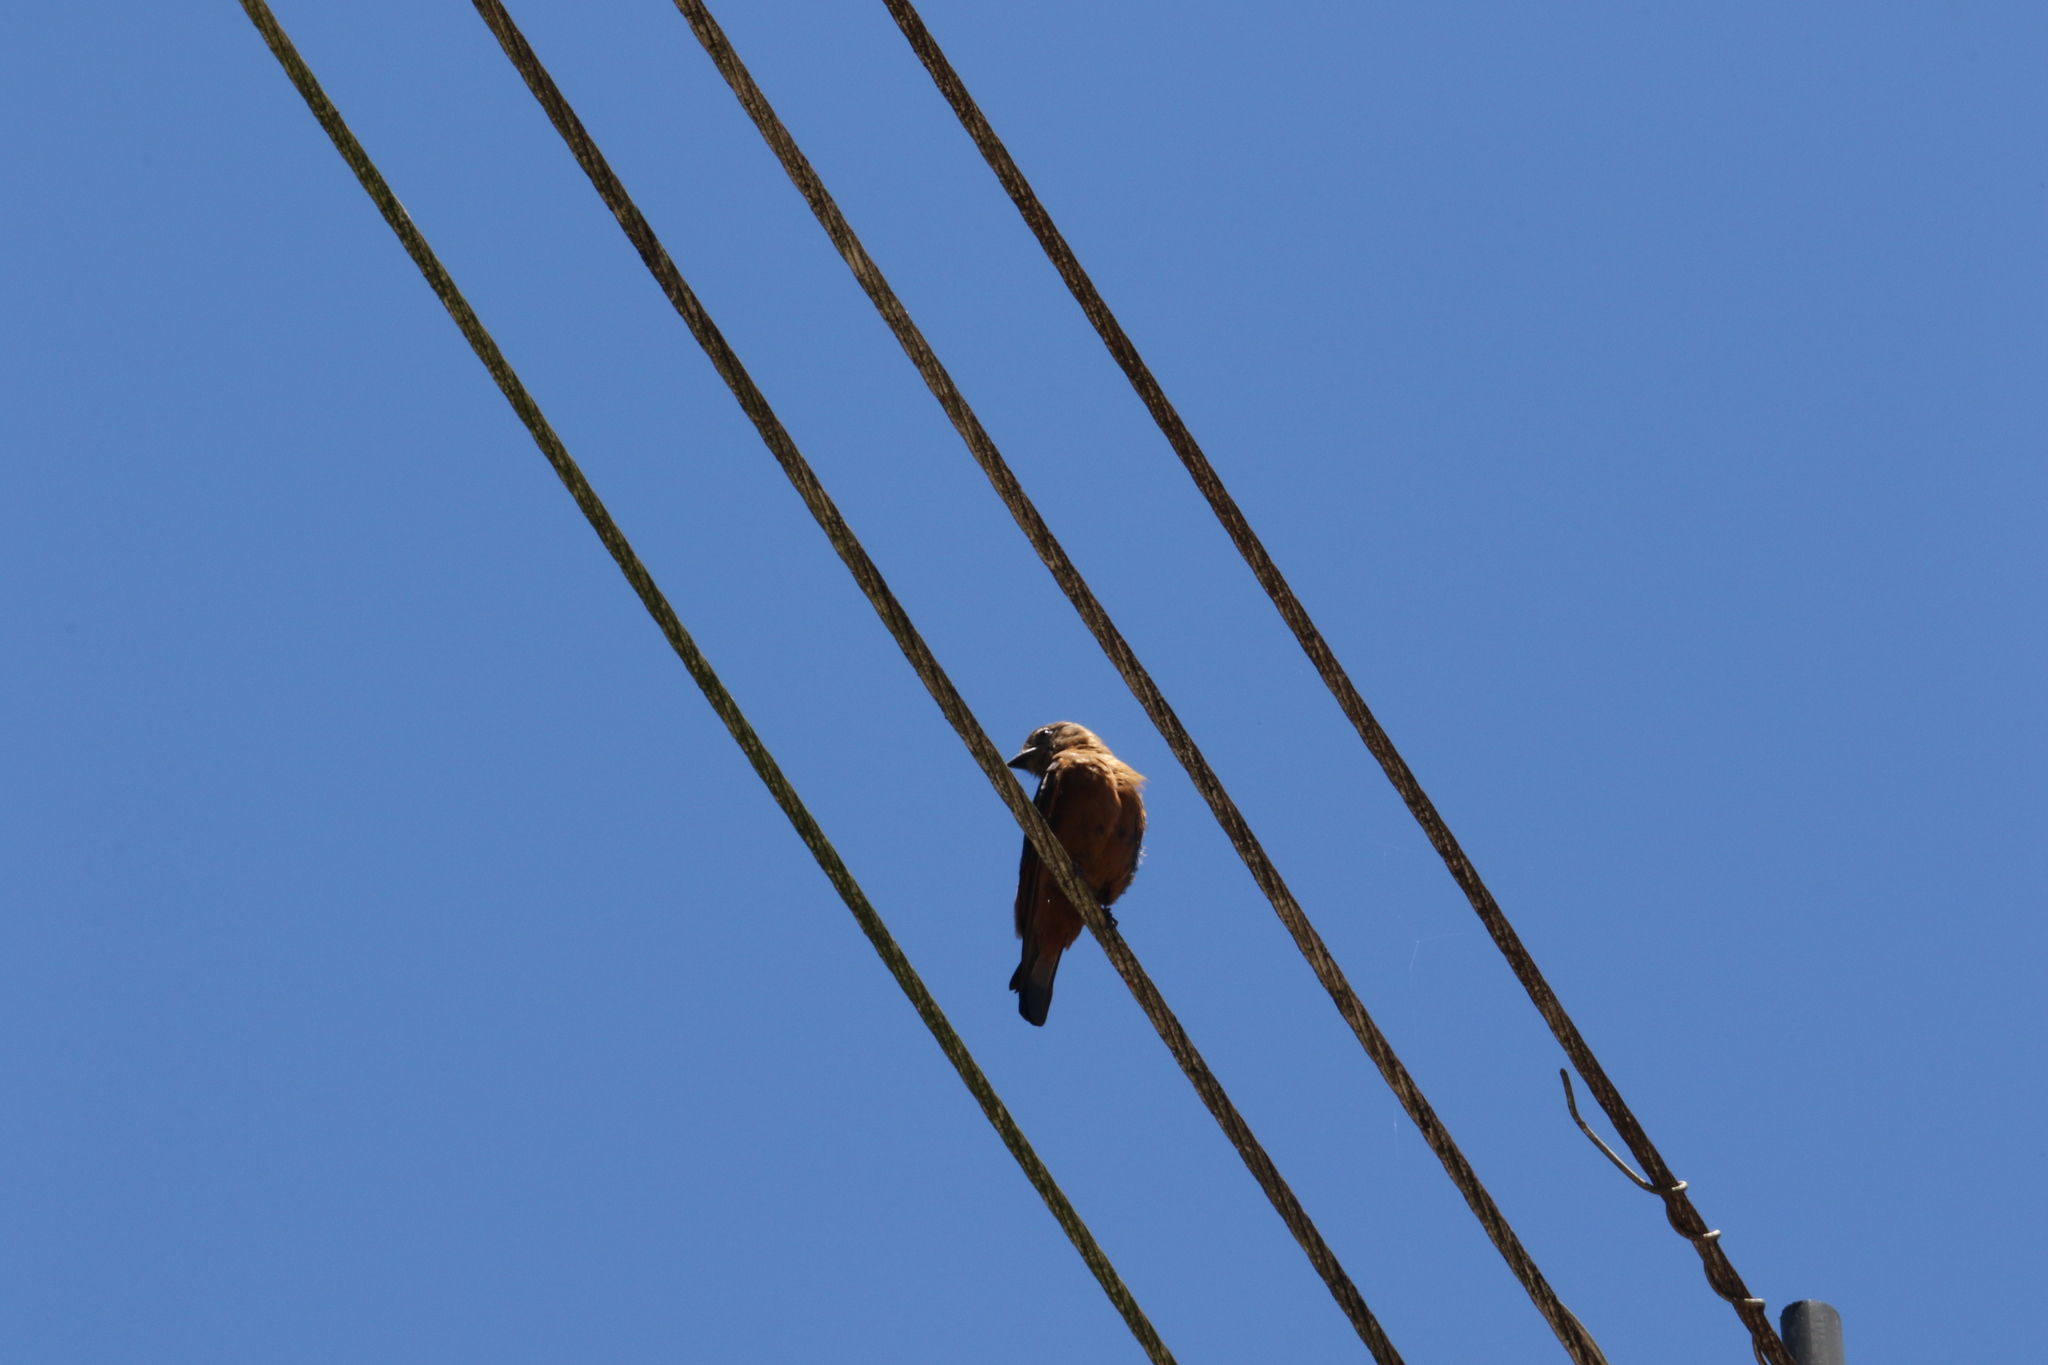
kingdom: Animalia
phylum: Chordata
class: Aves
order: Passeriformes
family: Tyrannidae
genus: Hirundinea
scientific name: Hirundinea ferruginea
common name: Cliff flycatcher
